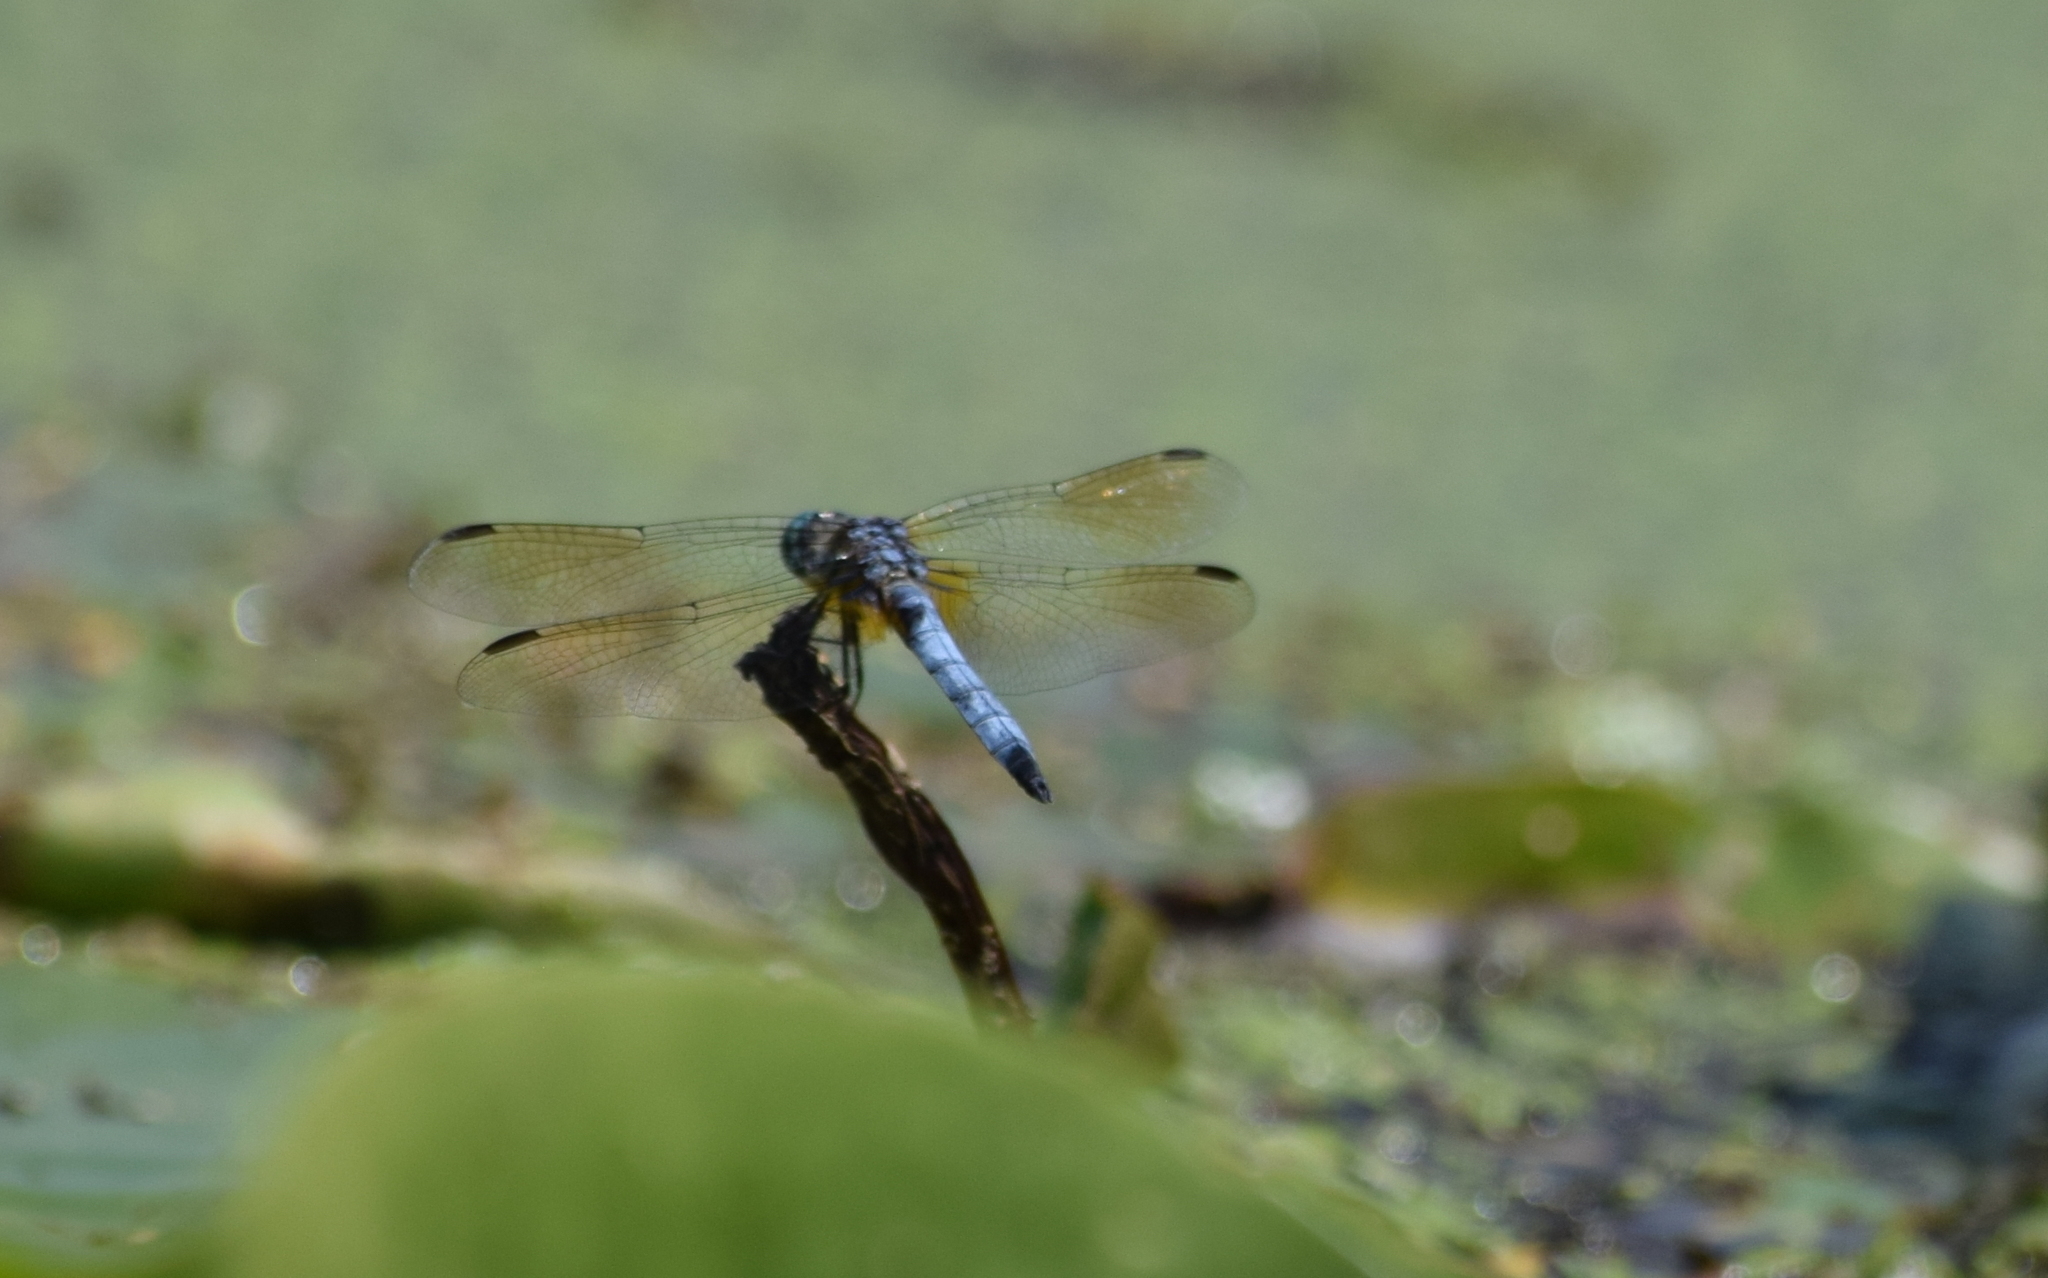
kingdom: Animalia
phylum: Arthropoda
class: Insecta
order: Odonata
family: Libellulidae
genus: Pachydiplax
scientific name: Pachydiplax longipennis
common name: Blue dasher
